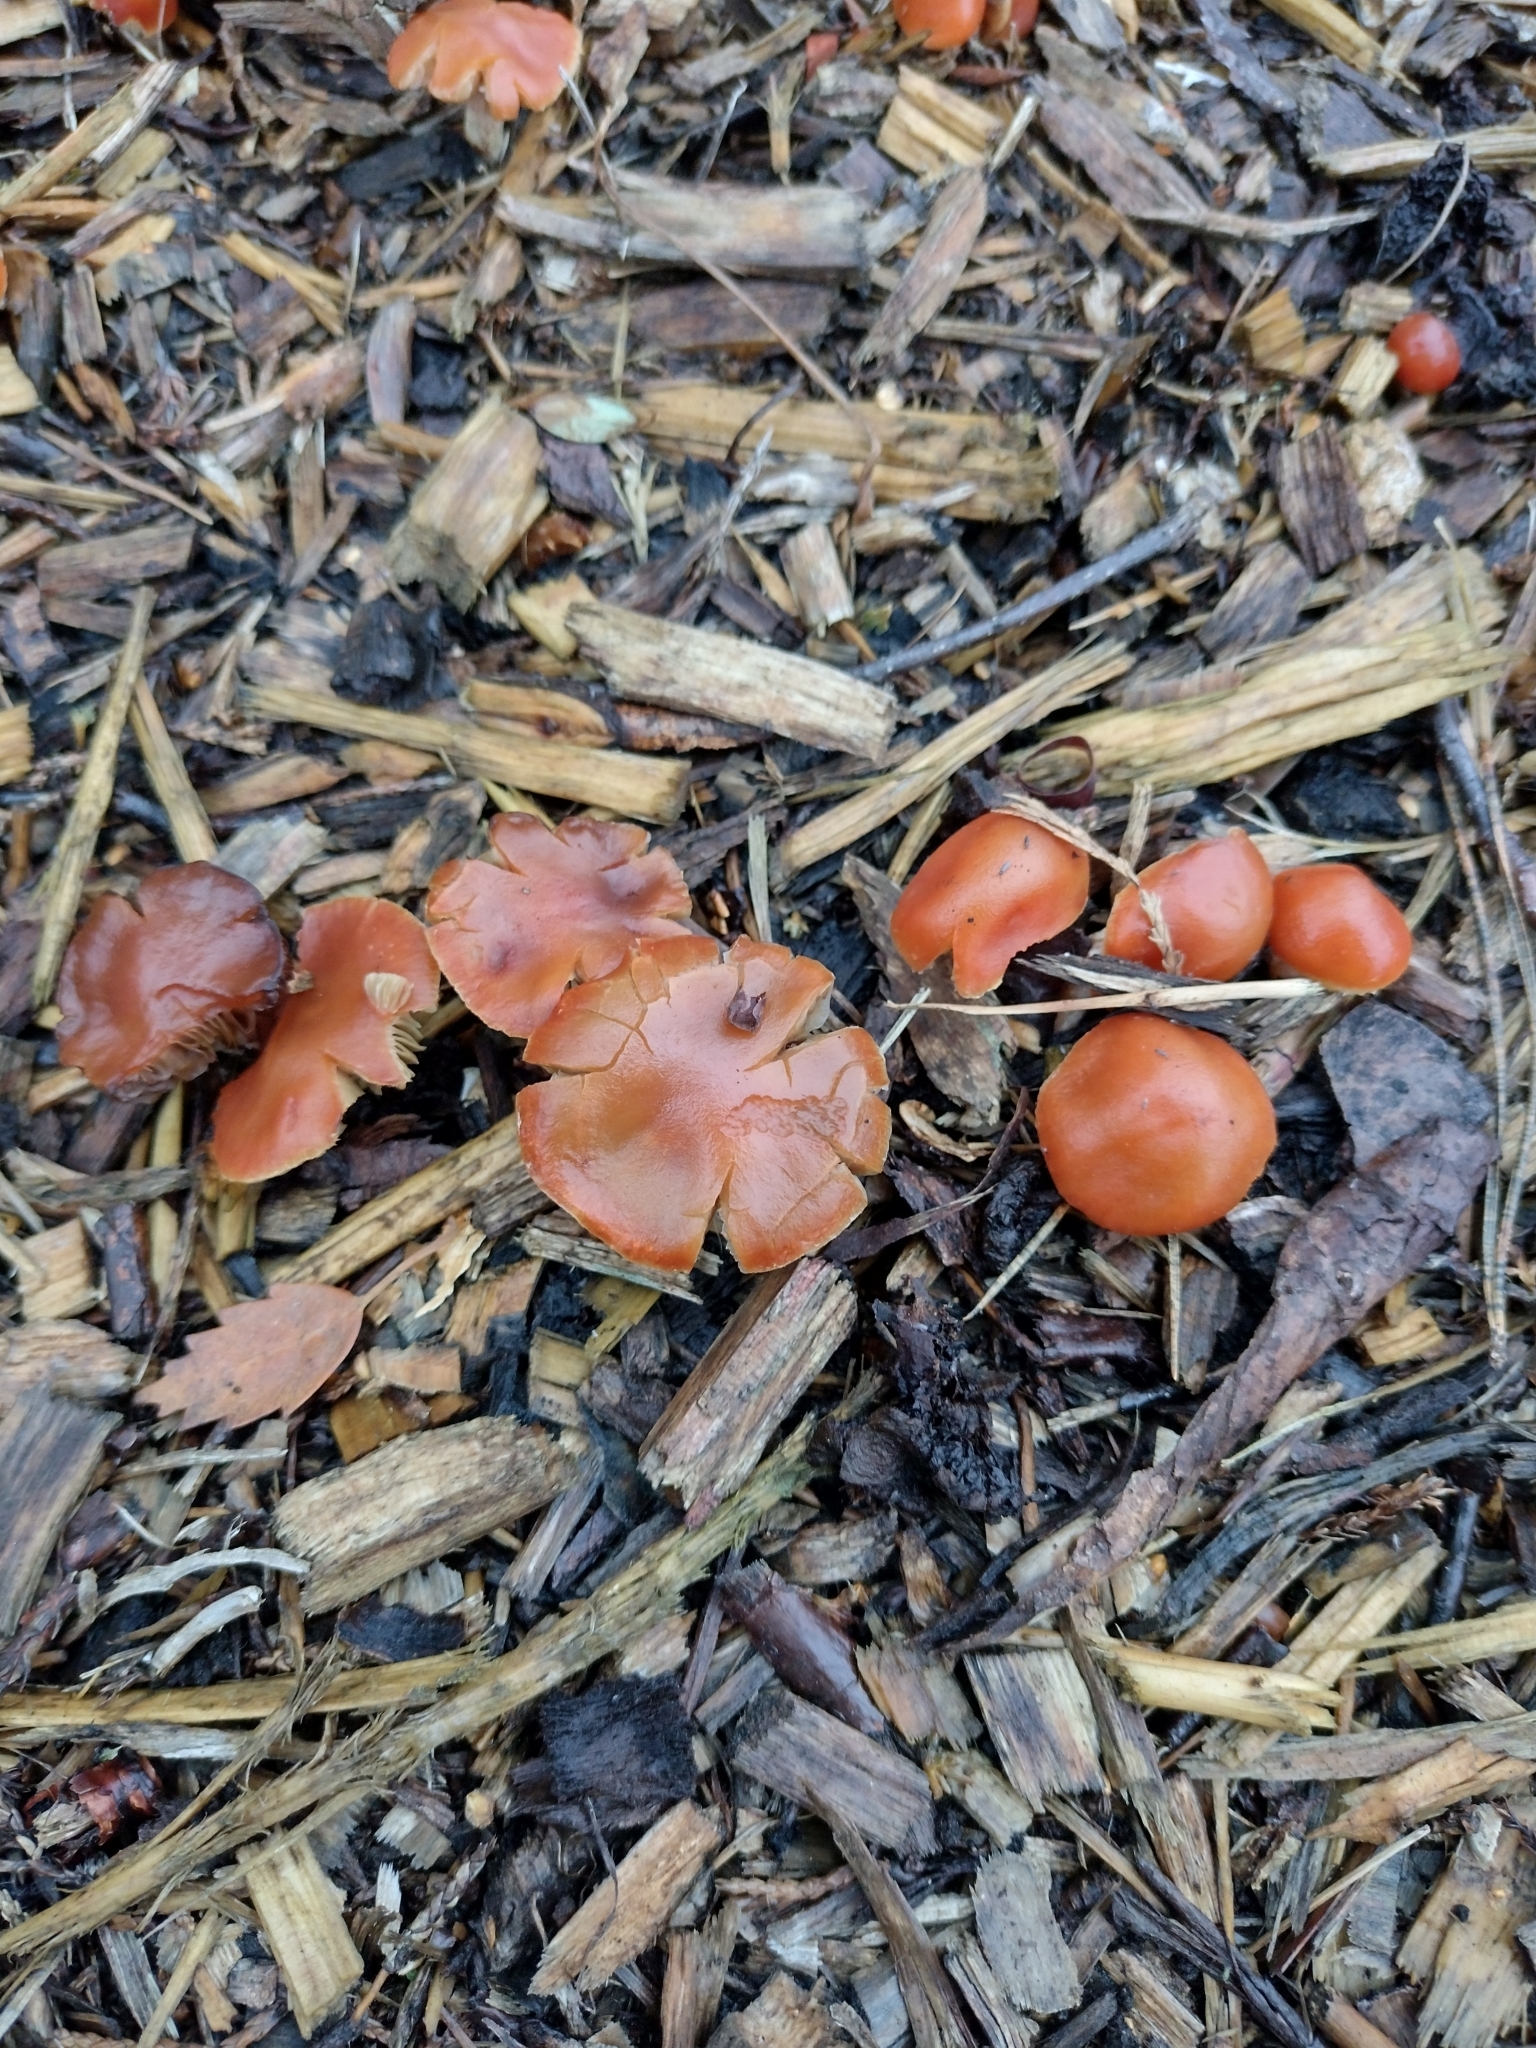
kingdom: Fungi
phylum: Basidiomycota
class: Agaricomycetes
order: Agaricales
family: Strophariaceae
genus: Leratiomyces
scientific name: Leratiomyces ceres
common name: Redlead roundhead
